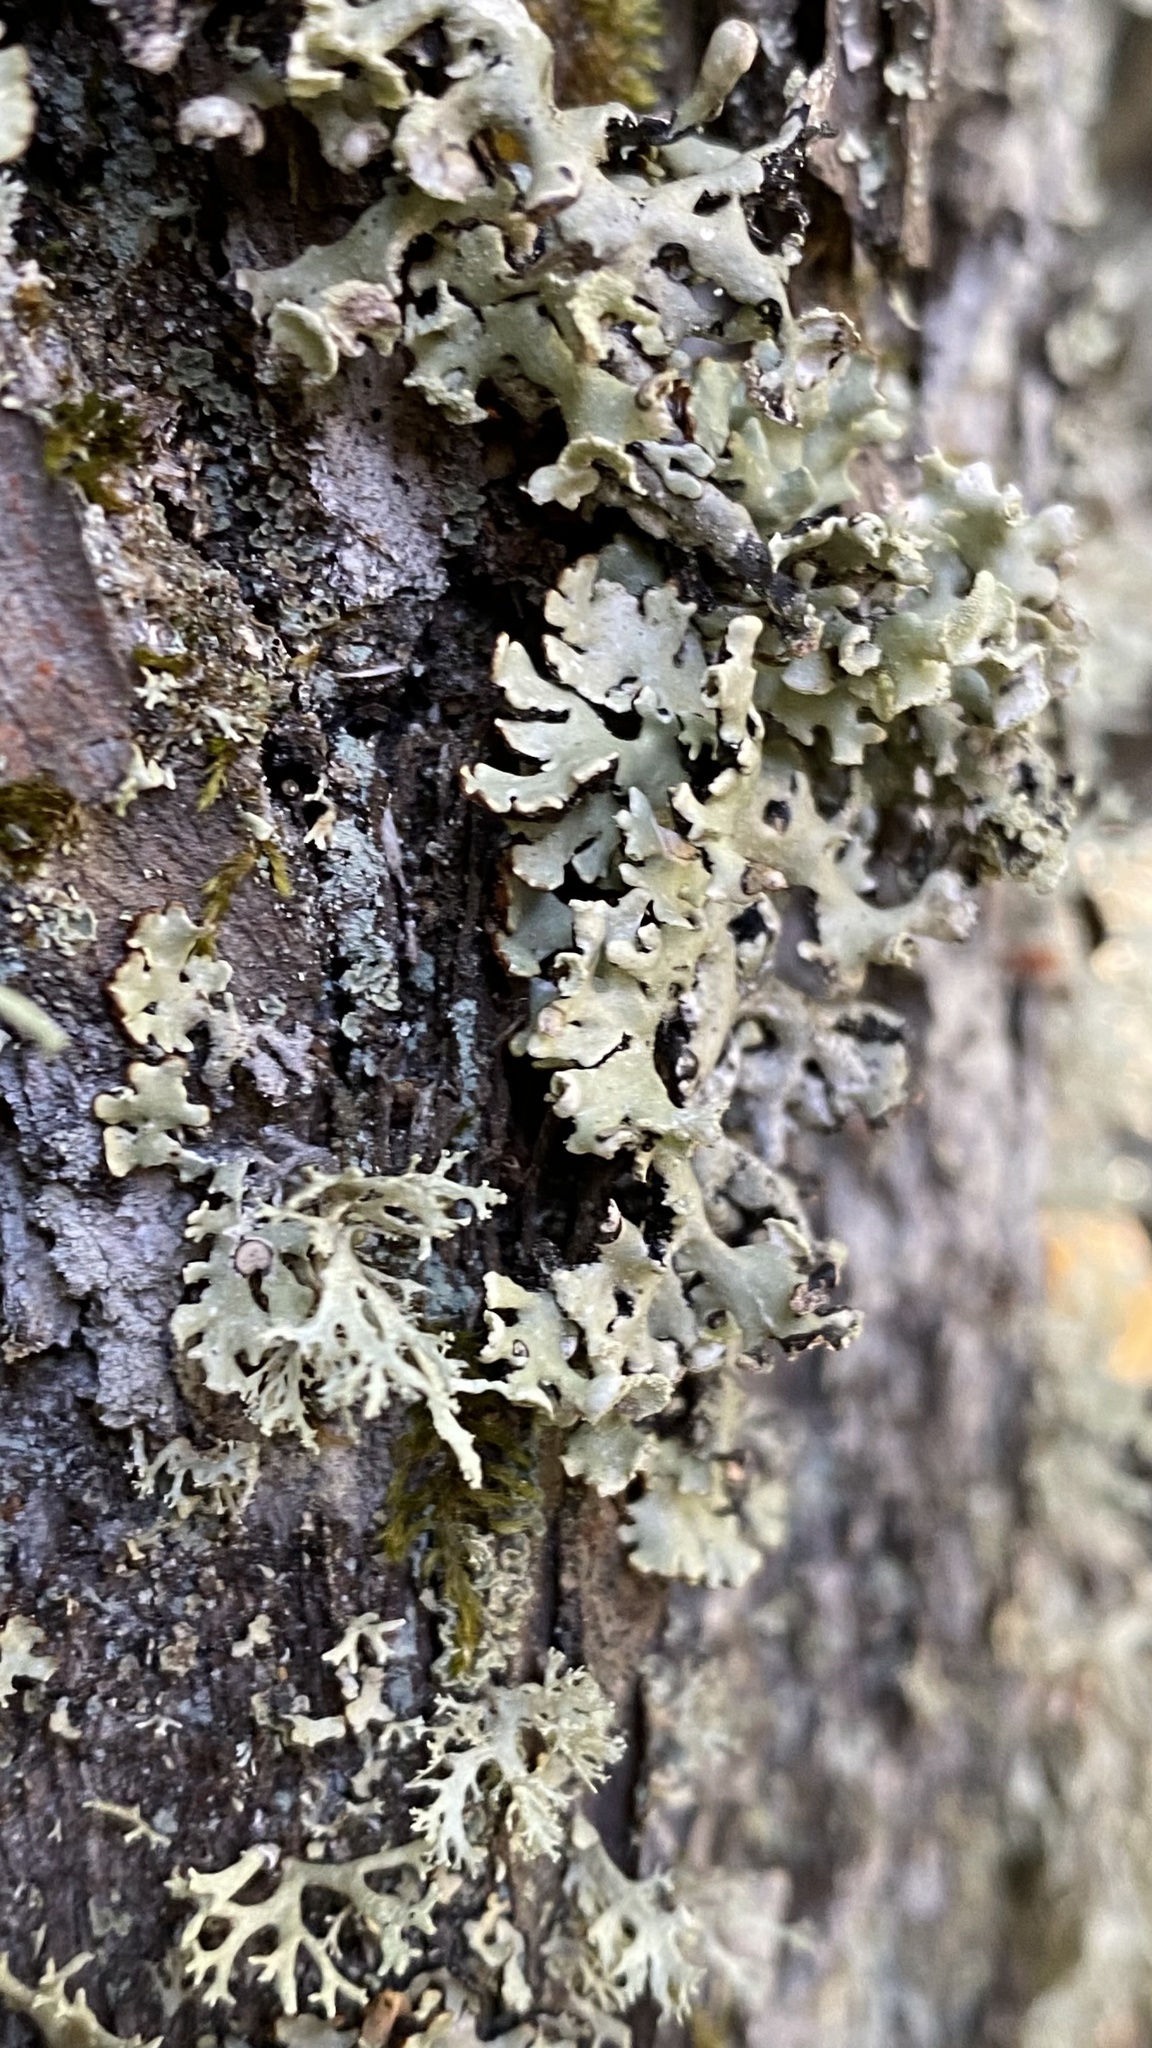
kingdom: Fungi
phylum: Ascomycota
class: Lecanoromycetes
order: Lecanorales
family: Parmeliaceae
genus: Hypogymnia
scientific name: Hypogymnia physodes
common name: Dark crottle
